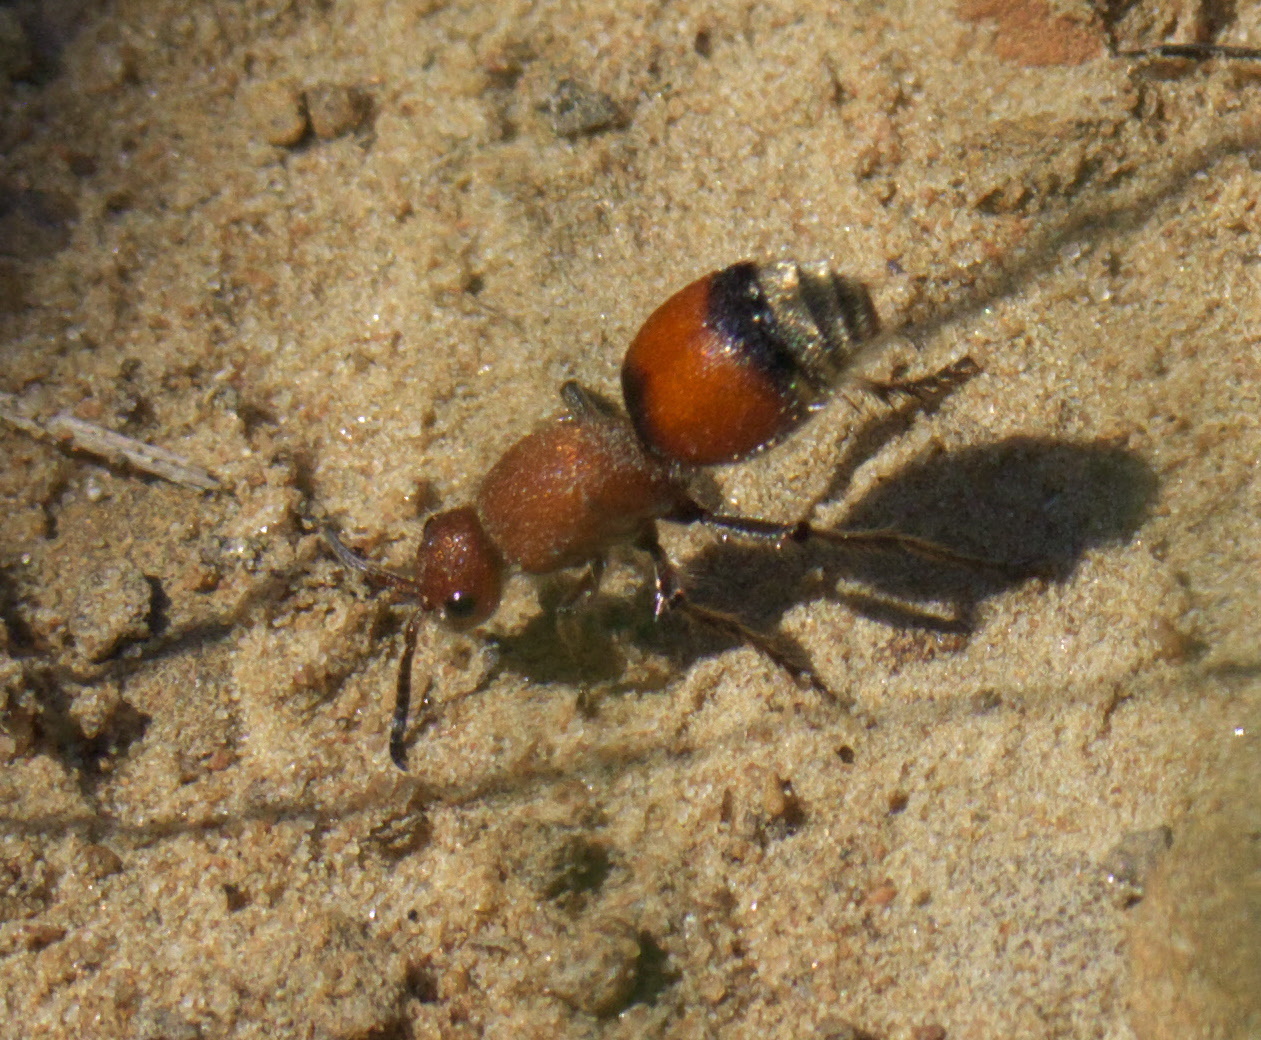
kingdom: Animalia
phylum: Arthropoda
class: Insecta
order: Hymenoptera
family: Mutillidae
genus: Dasymutilla
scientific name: Dasymutilla
